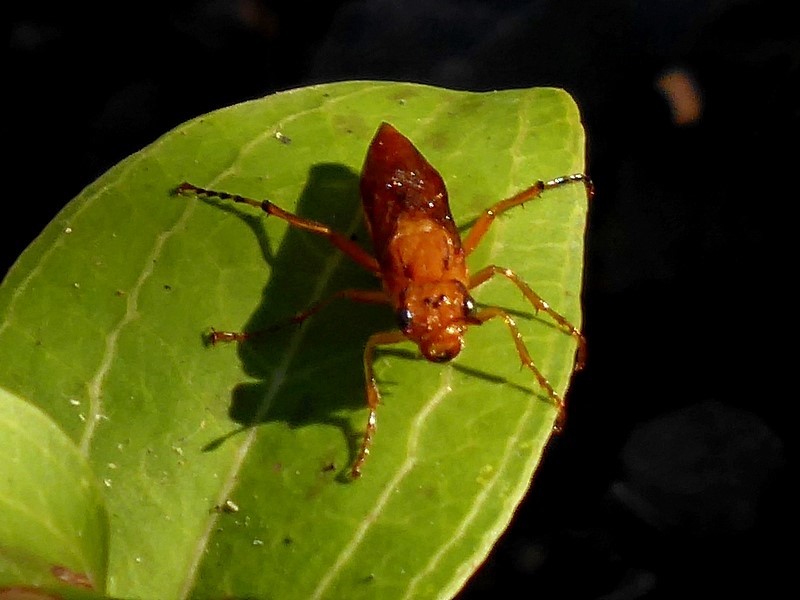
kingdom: Animalia
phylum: Arthropoda
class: Insecta
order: Hymenoptera
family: Pergidae
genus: Pseudoperga
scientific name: Pseudoperga
